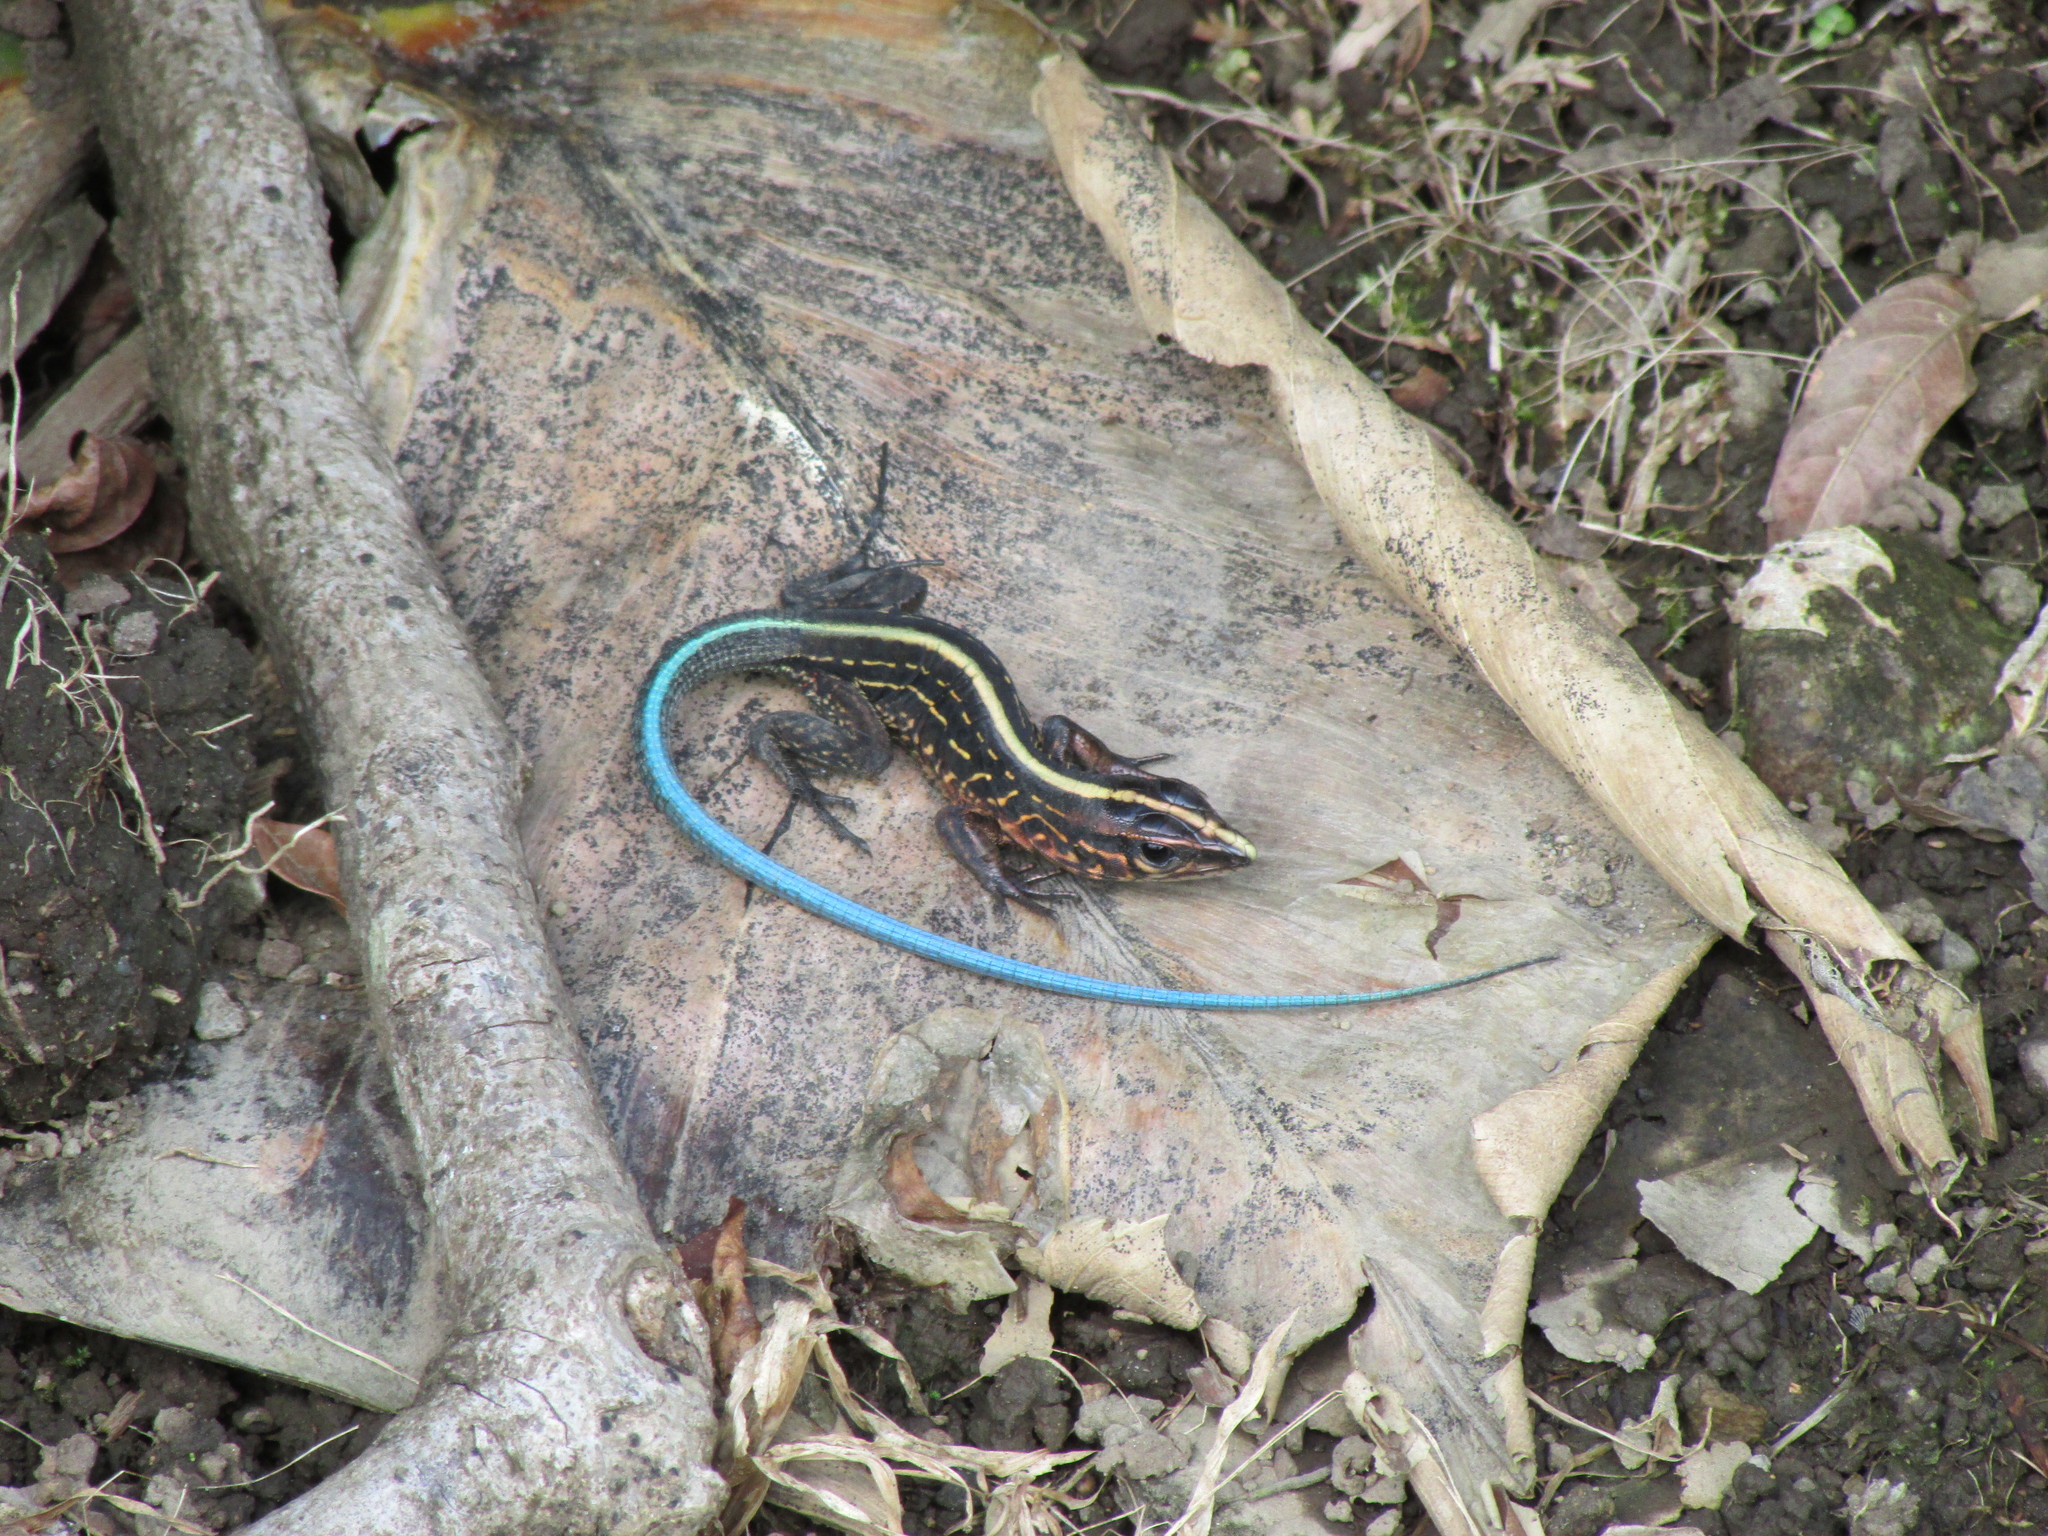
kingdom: Animalia
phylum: Chordata
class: Squamata
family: Teiidae
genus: Holcosus
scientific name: Holcosus festivus
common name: Middle american ameiva
